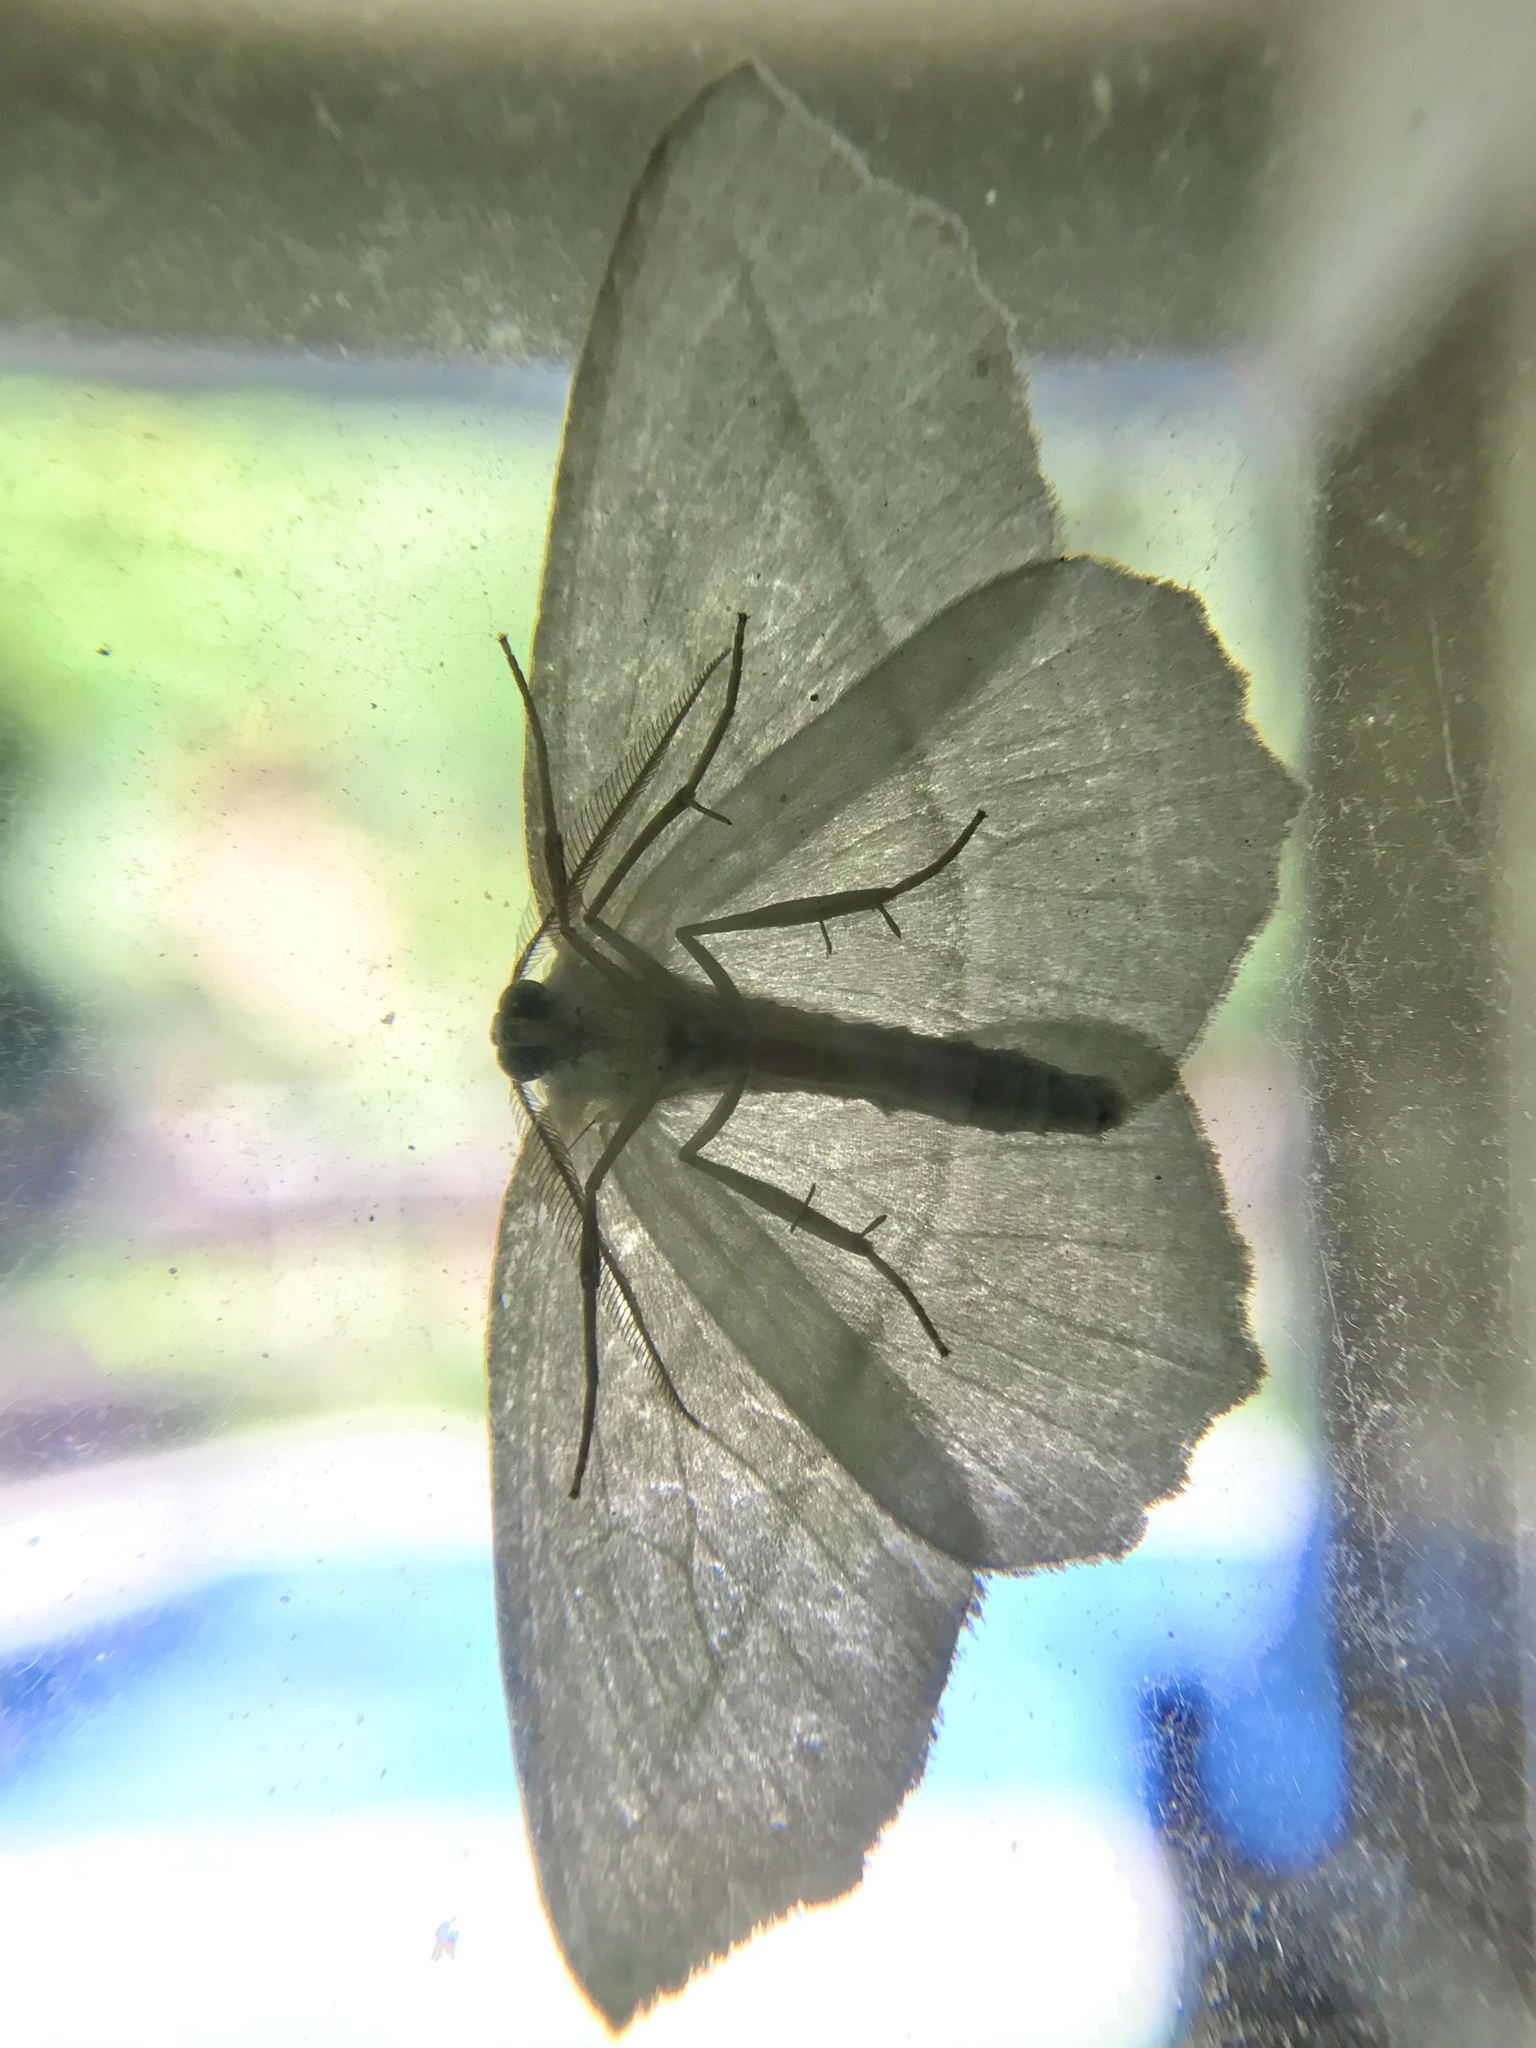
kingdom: Animalia
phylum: Arthropoda
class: Insecta
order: Lepidoptera
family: Geometridae
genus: Campaea
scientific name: Campaea perlata
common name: Fringed looper
